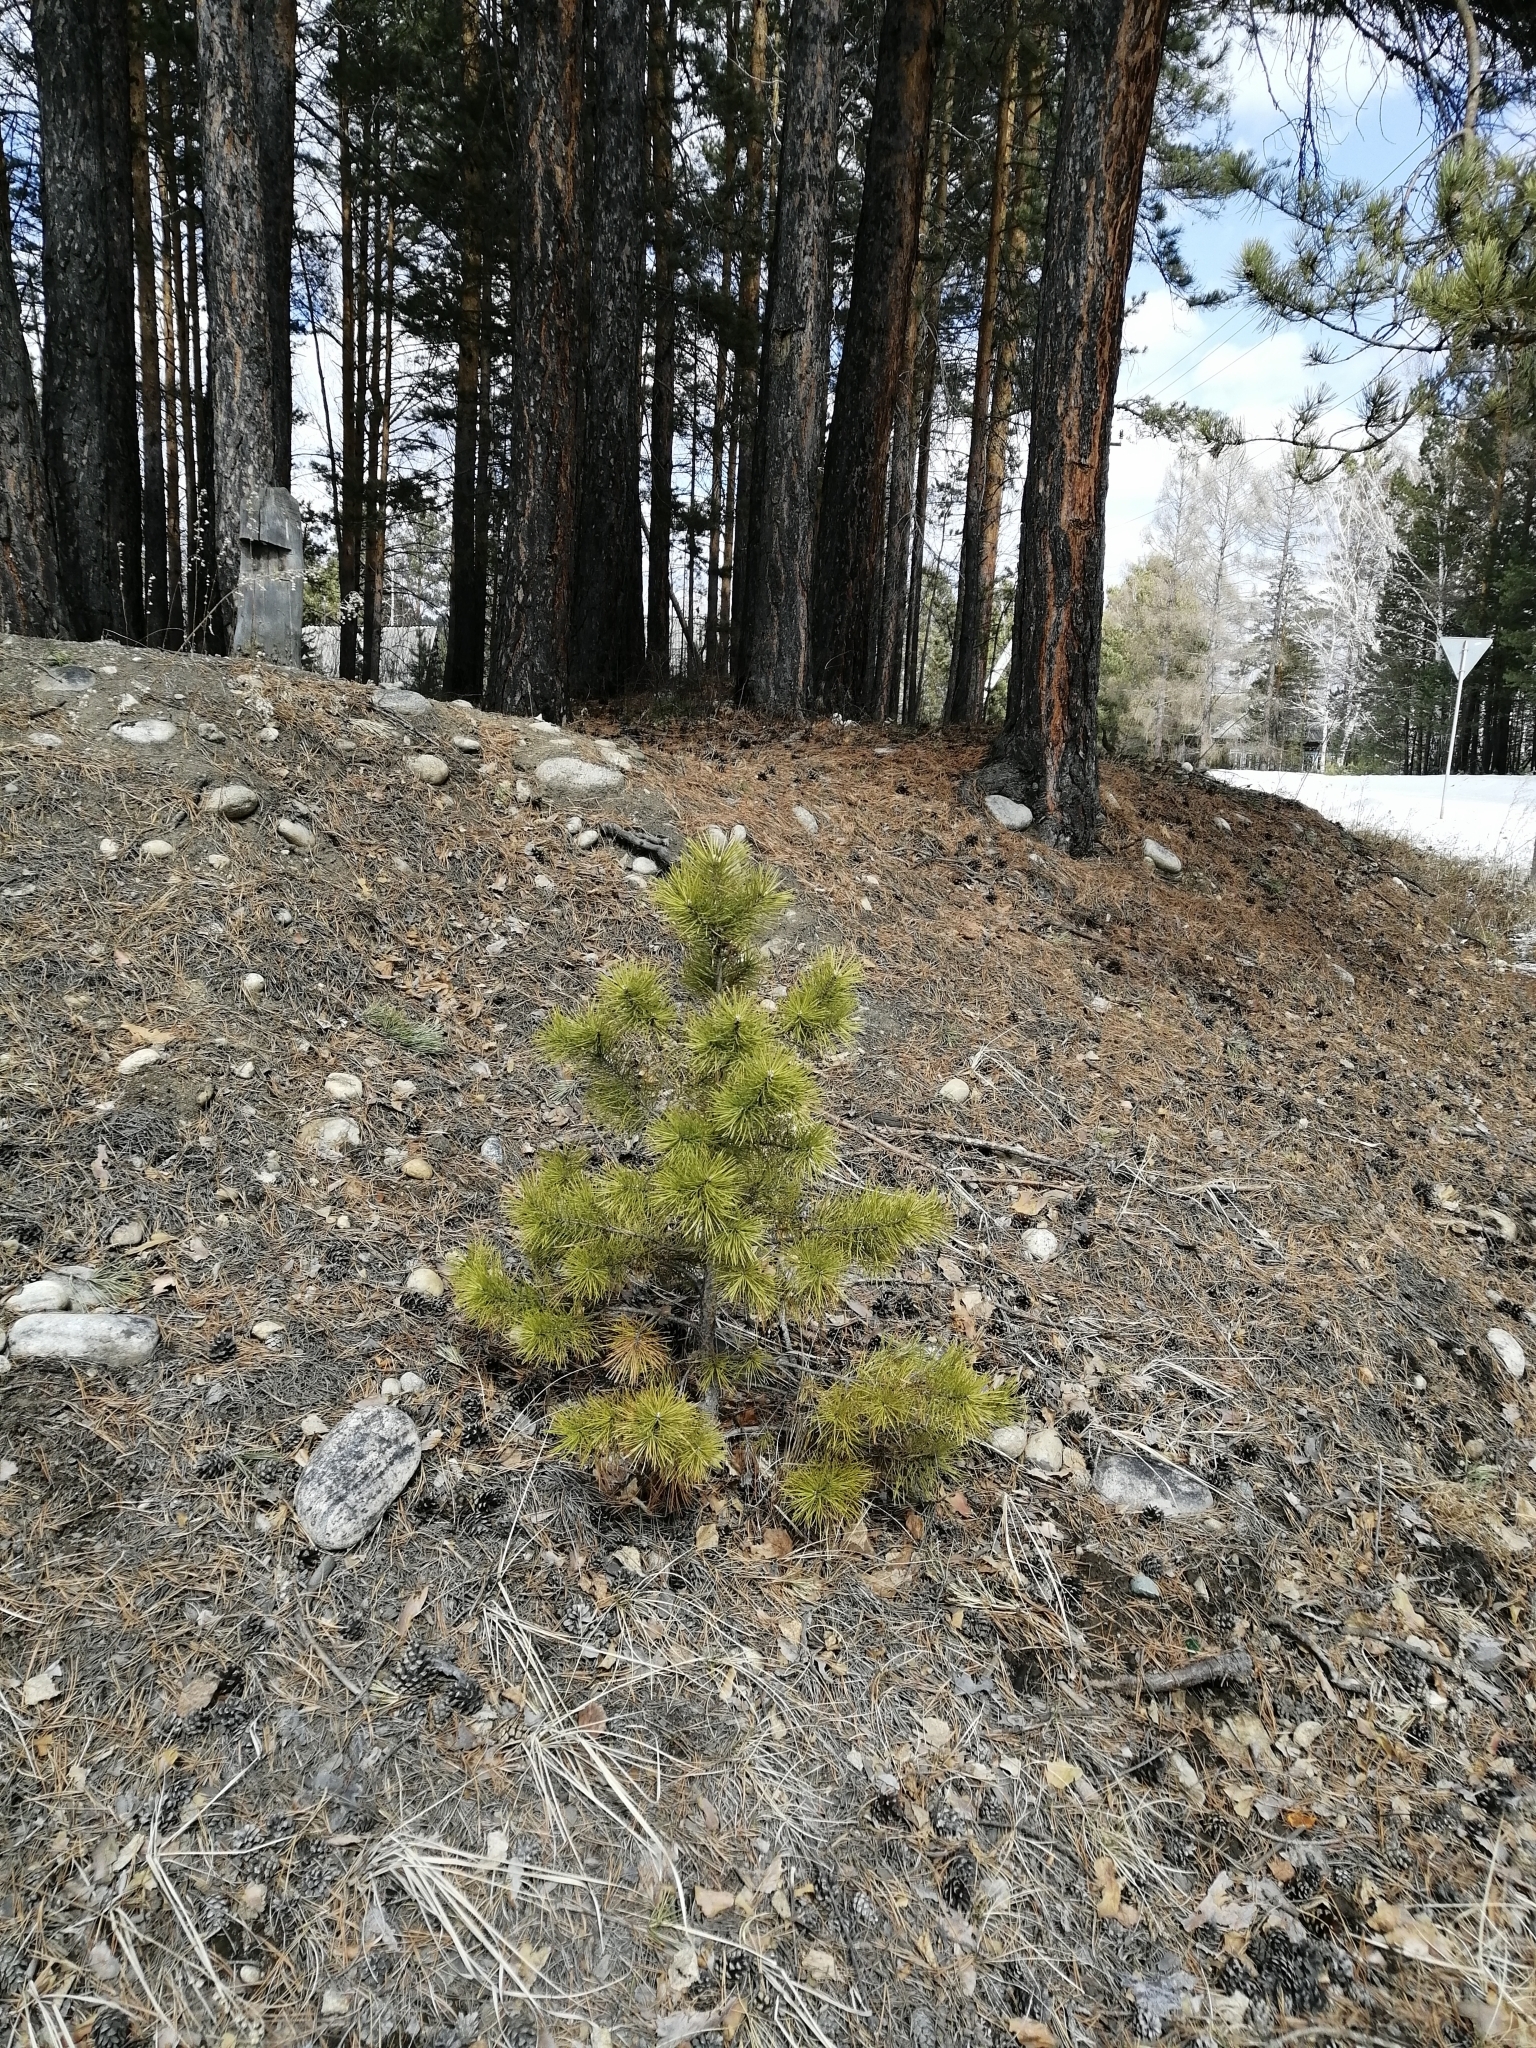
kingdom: Plantae
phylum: Tracheophyta
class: Pinopsida
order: Pinales
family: Pinaceae
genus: Pinus
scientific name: Pinus sylvestris
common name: Scots pine
